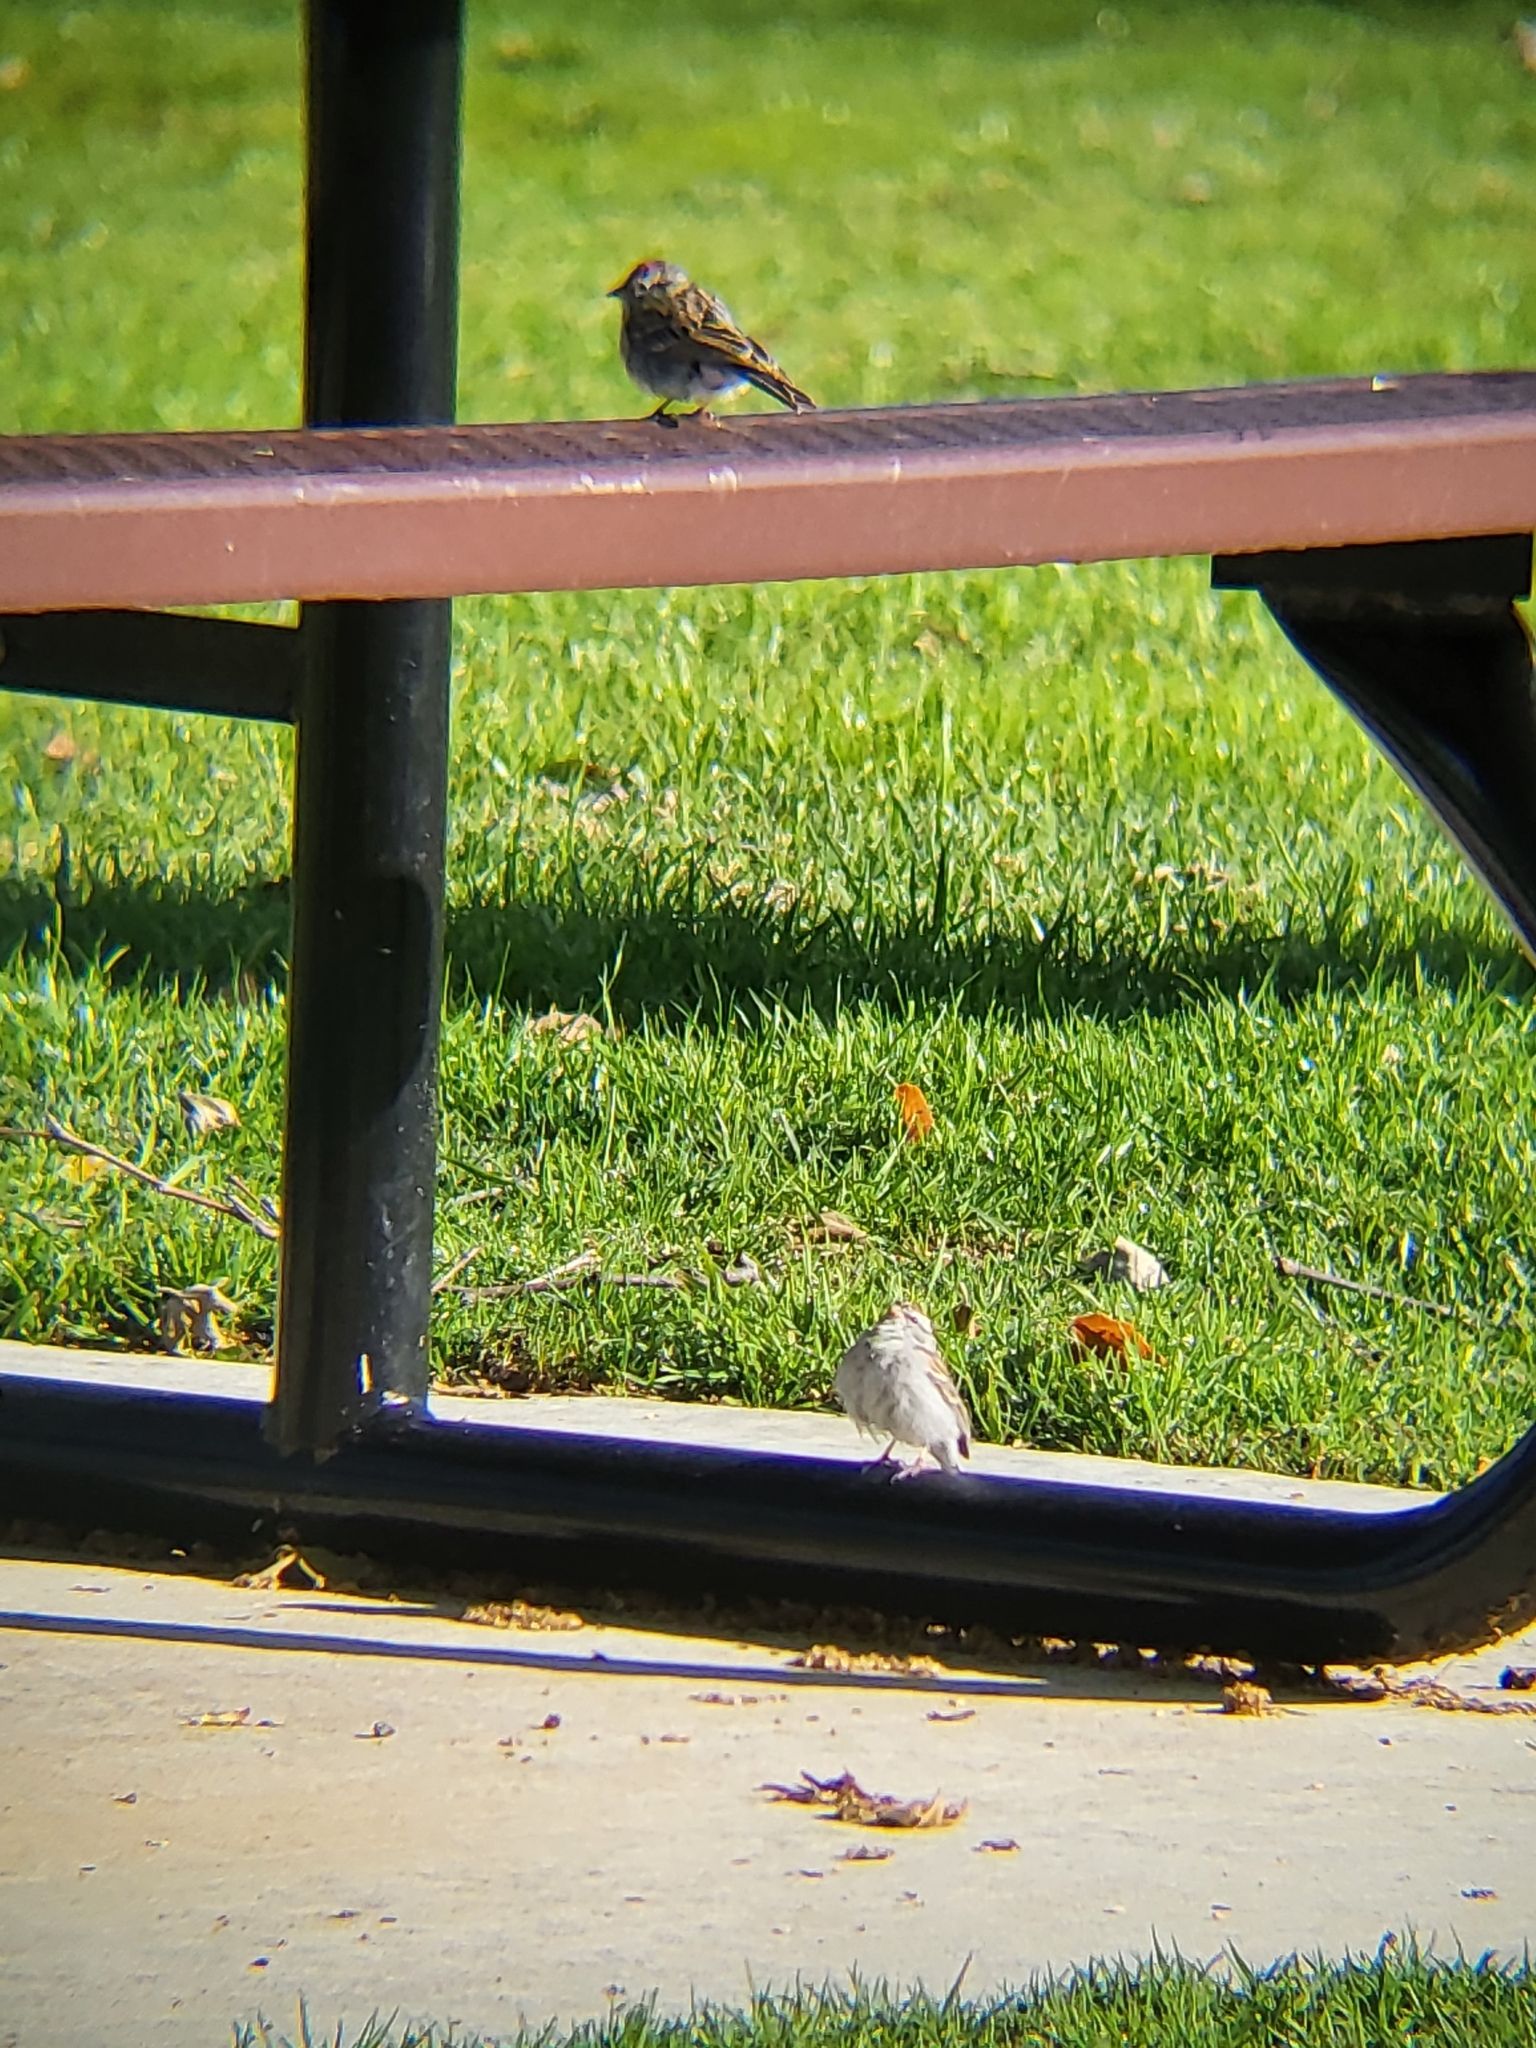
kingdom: Animalia
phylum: Chordata
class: Aves
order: Passeriformes
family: Passerellidae
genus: Spizella
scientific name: Spizella passerina
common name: Chipping sparrow
